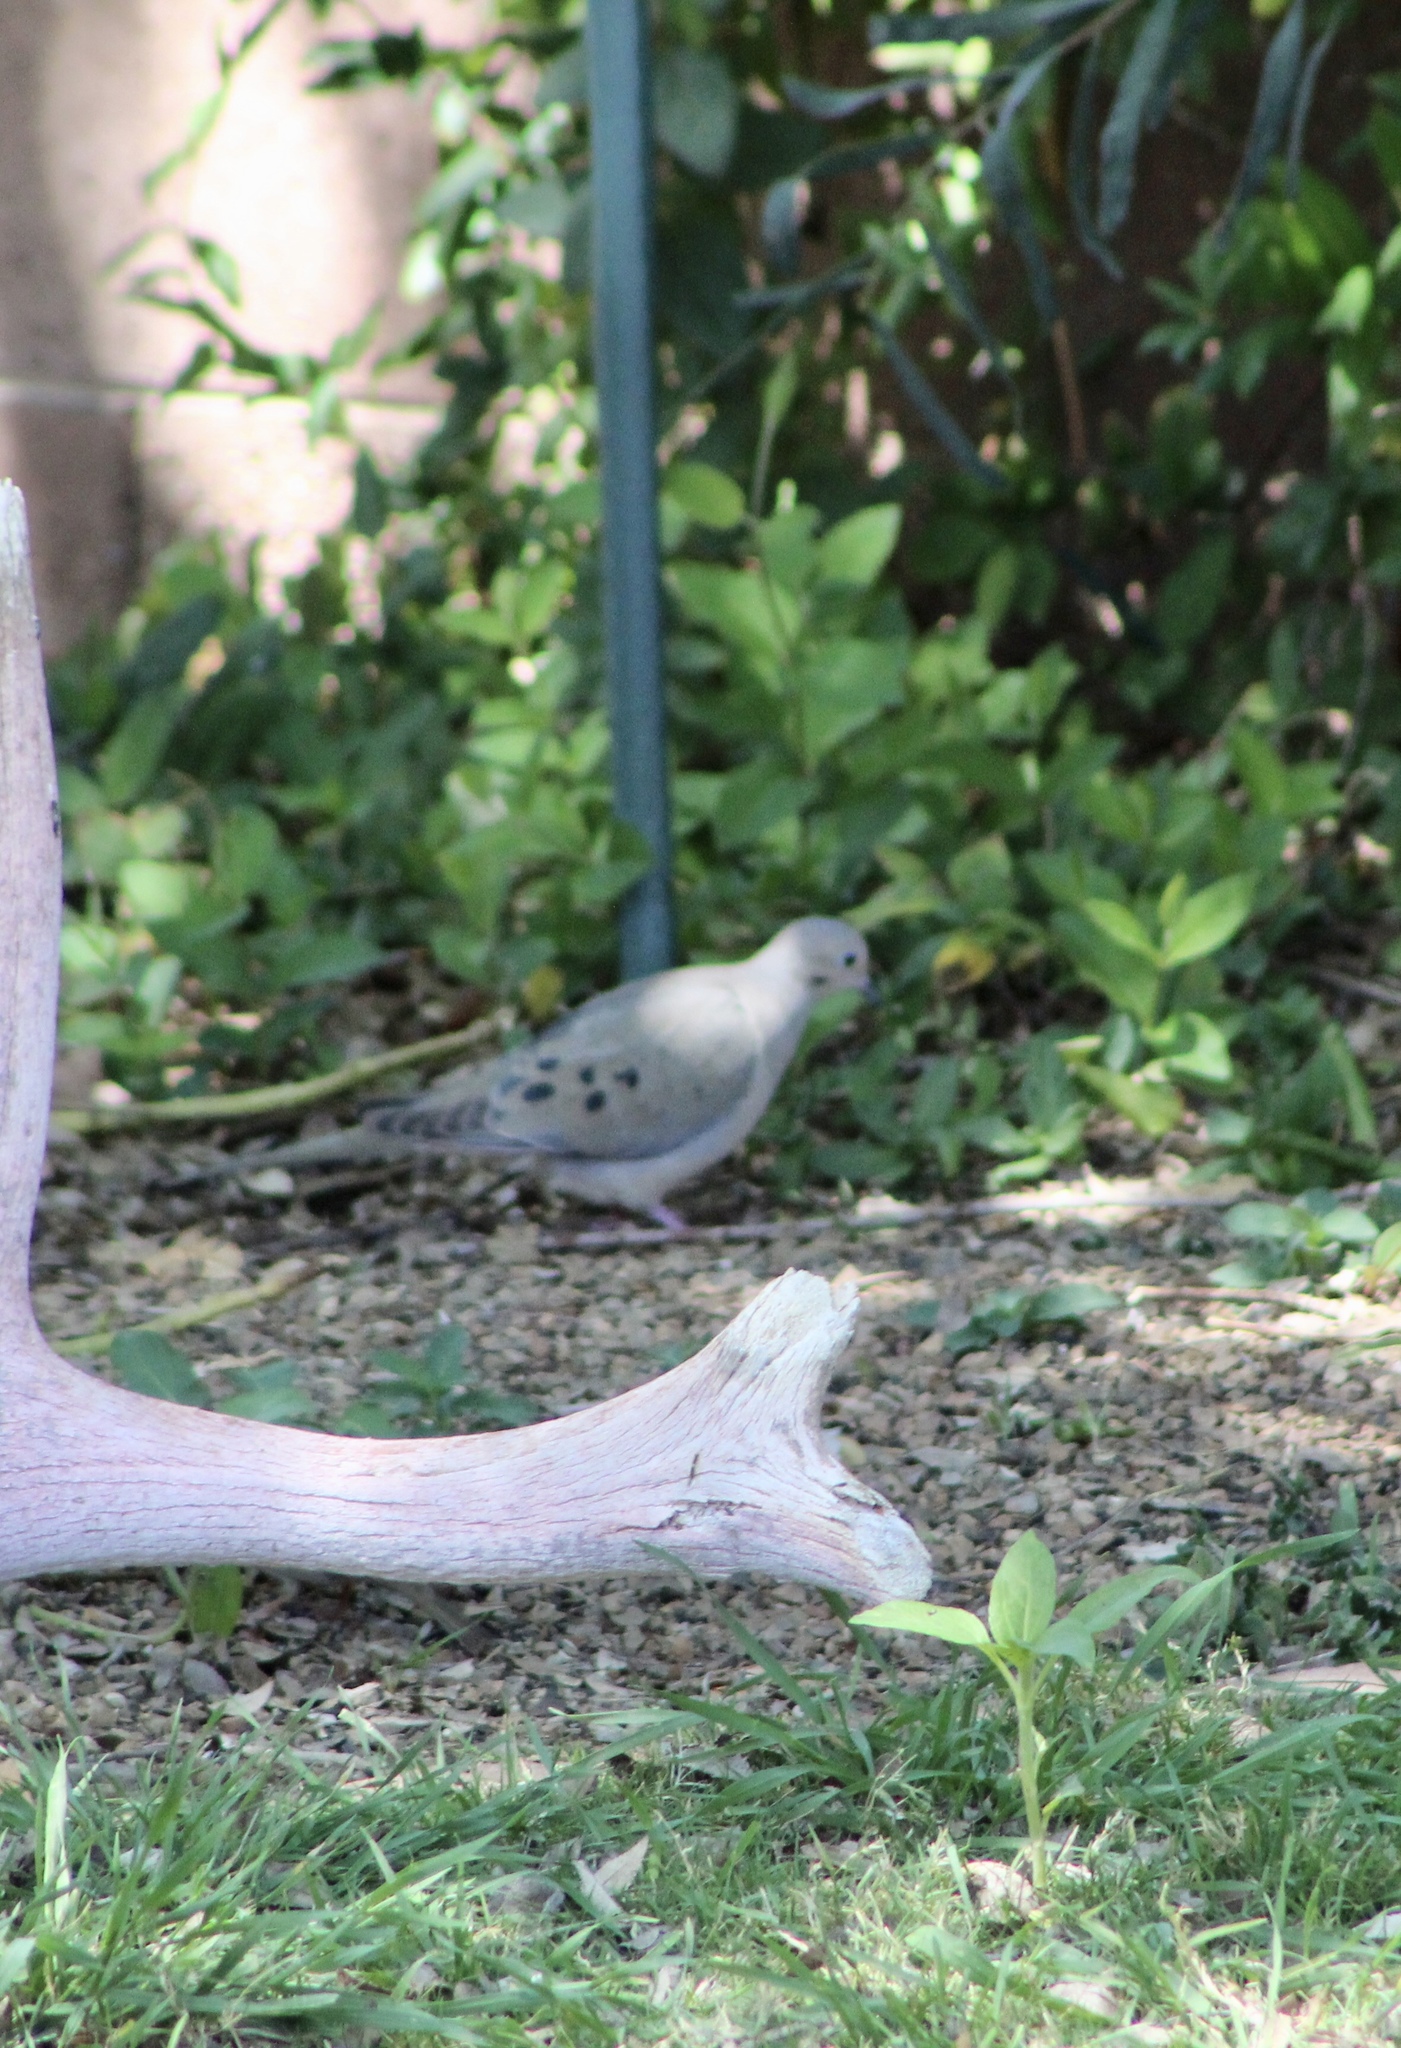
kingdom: Animalia
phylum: Chordata
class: Aves
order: Columbiformes
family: Columbidae
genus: Zenaida
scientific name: Zenaida macroura
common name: Mourning dove
